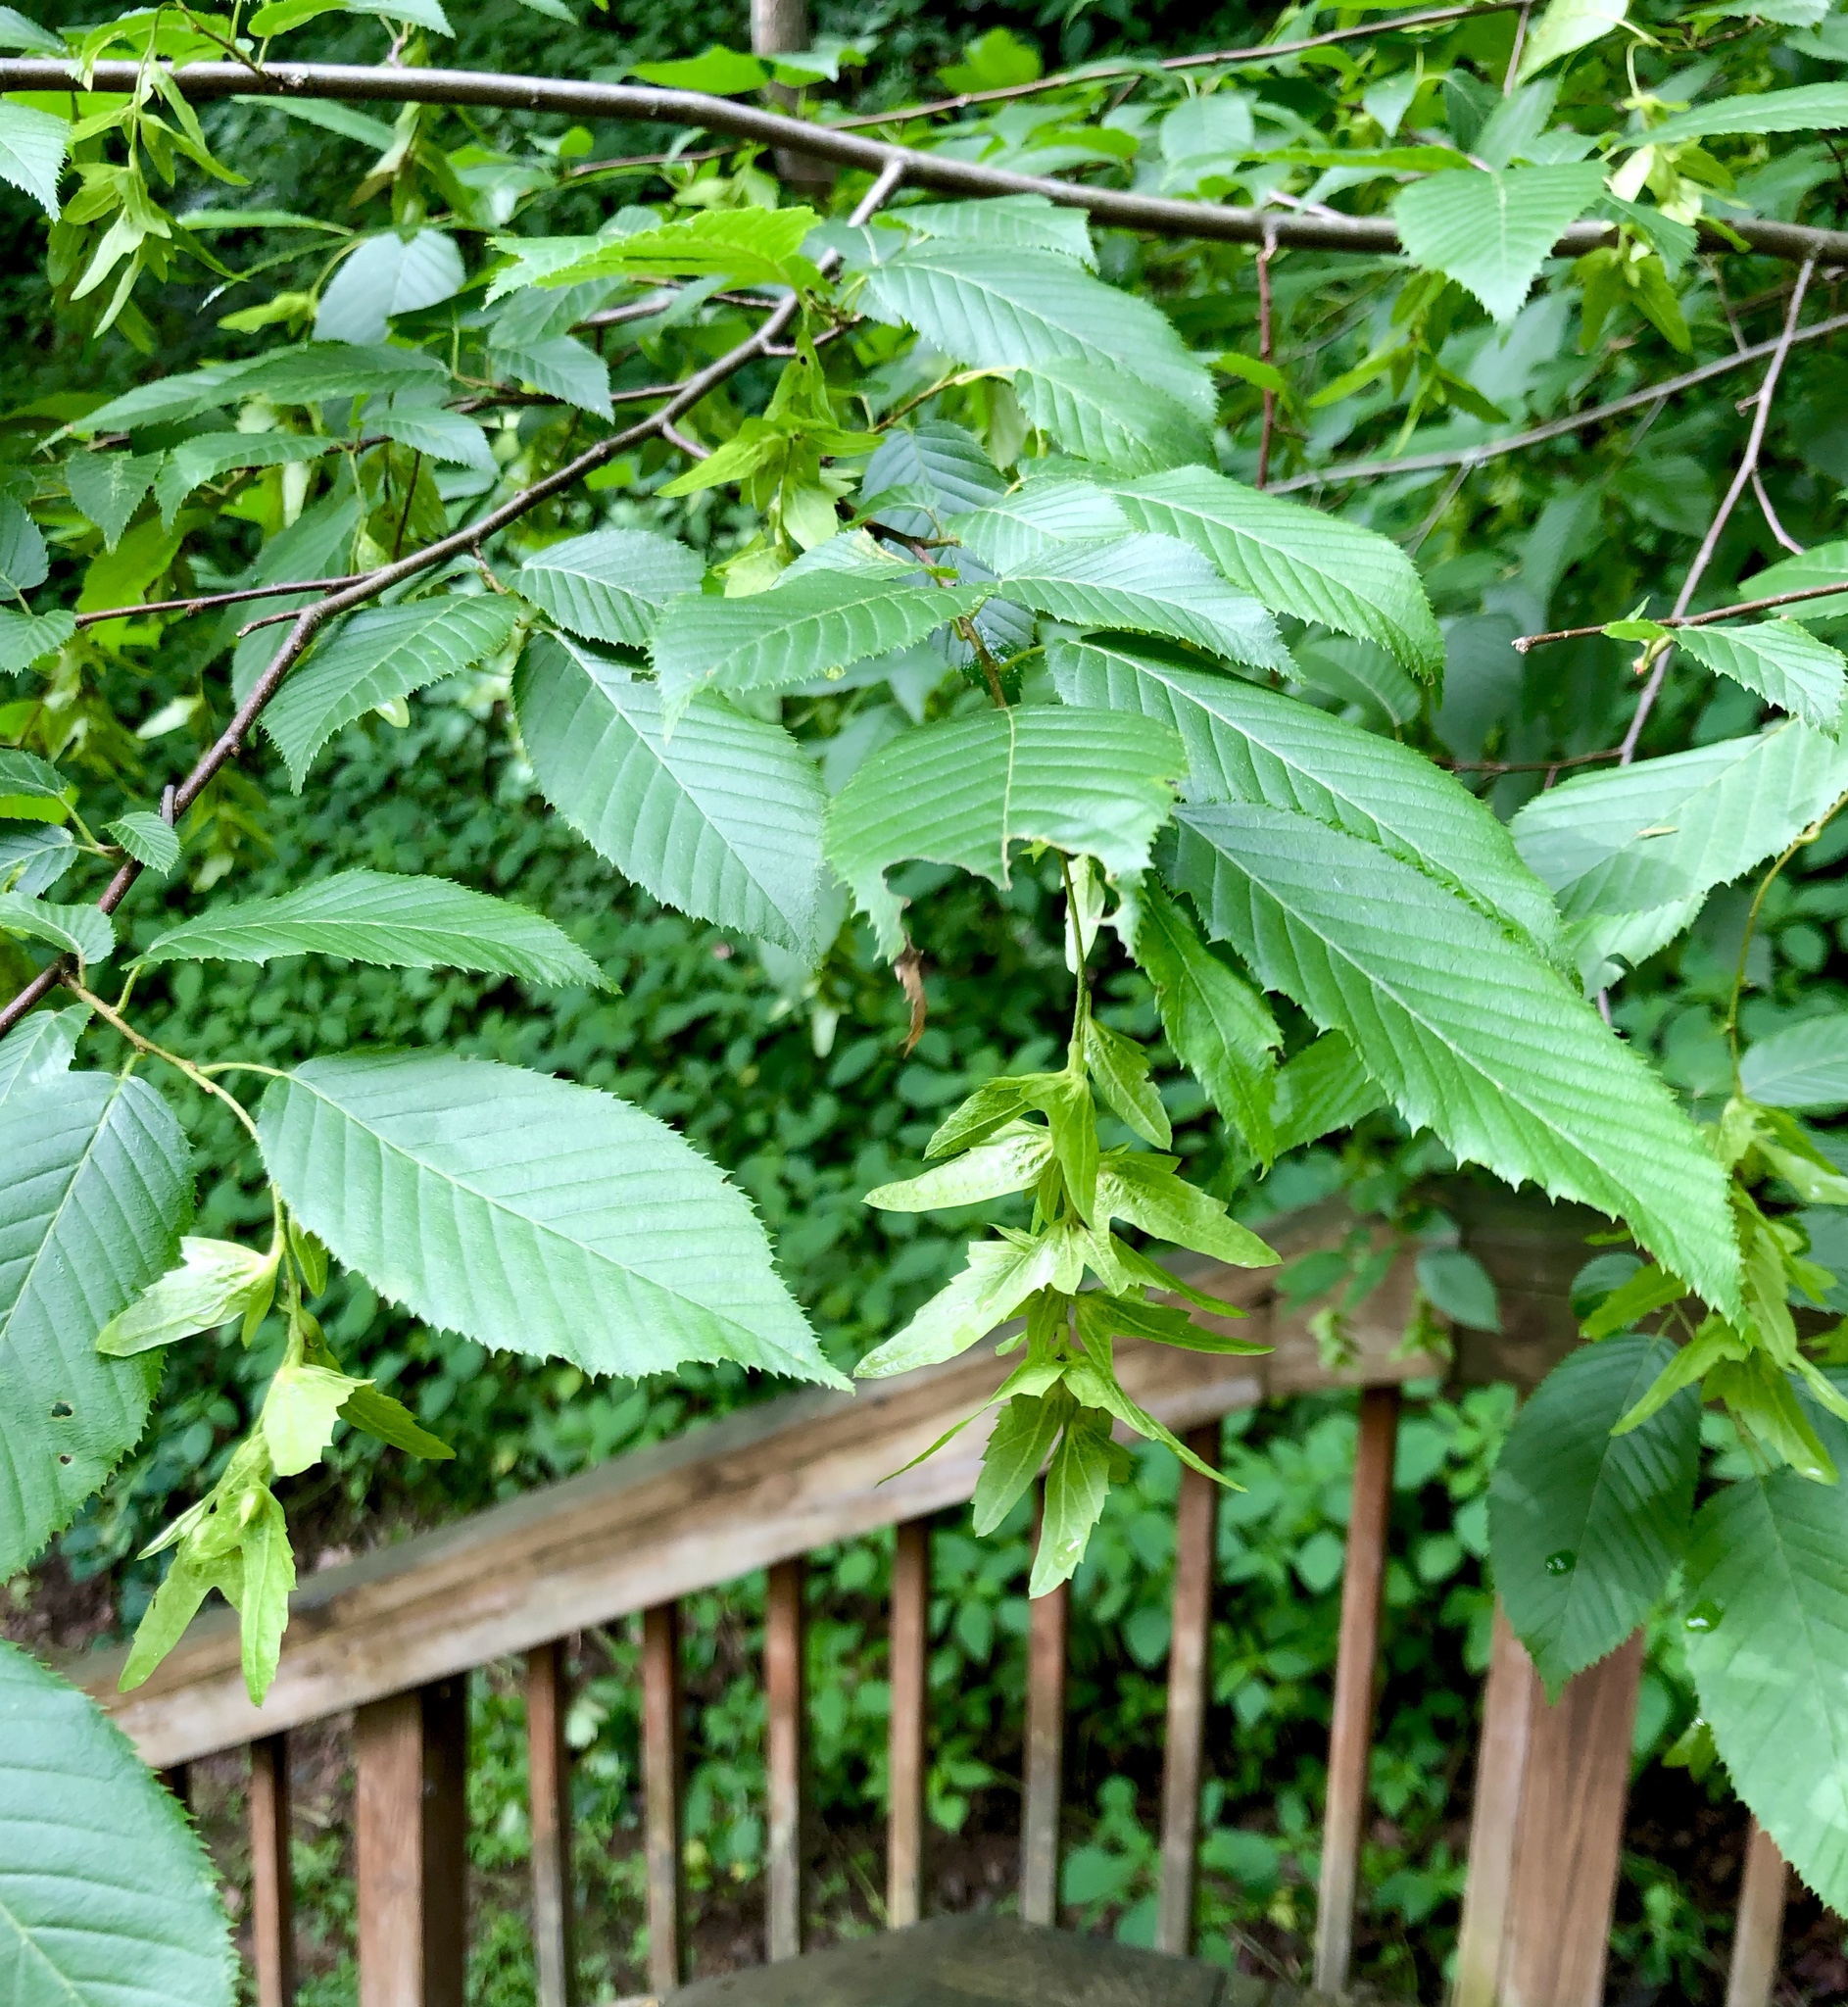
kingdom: Plantae
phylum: Tracheophyta
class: Magnoliopsida
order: Fagales
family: Betulaceae
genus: Carpinus
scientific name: Carpinus caroliniana
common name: American hornbeam
